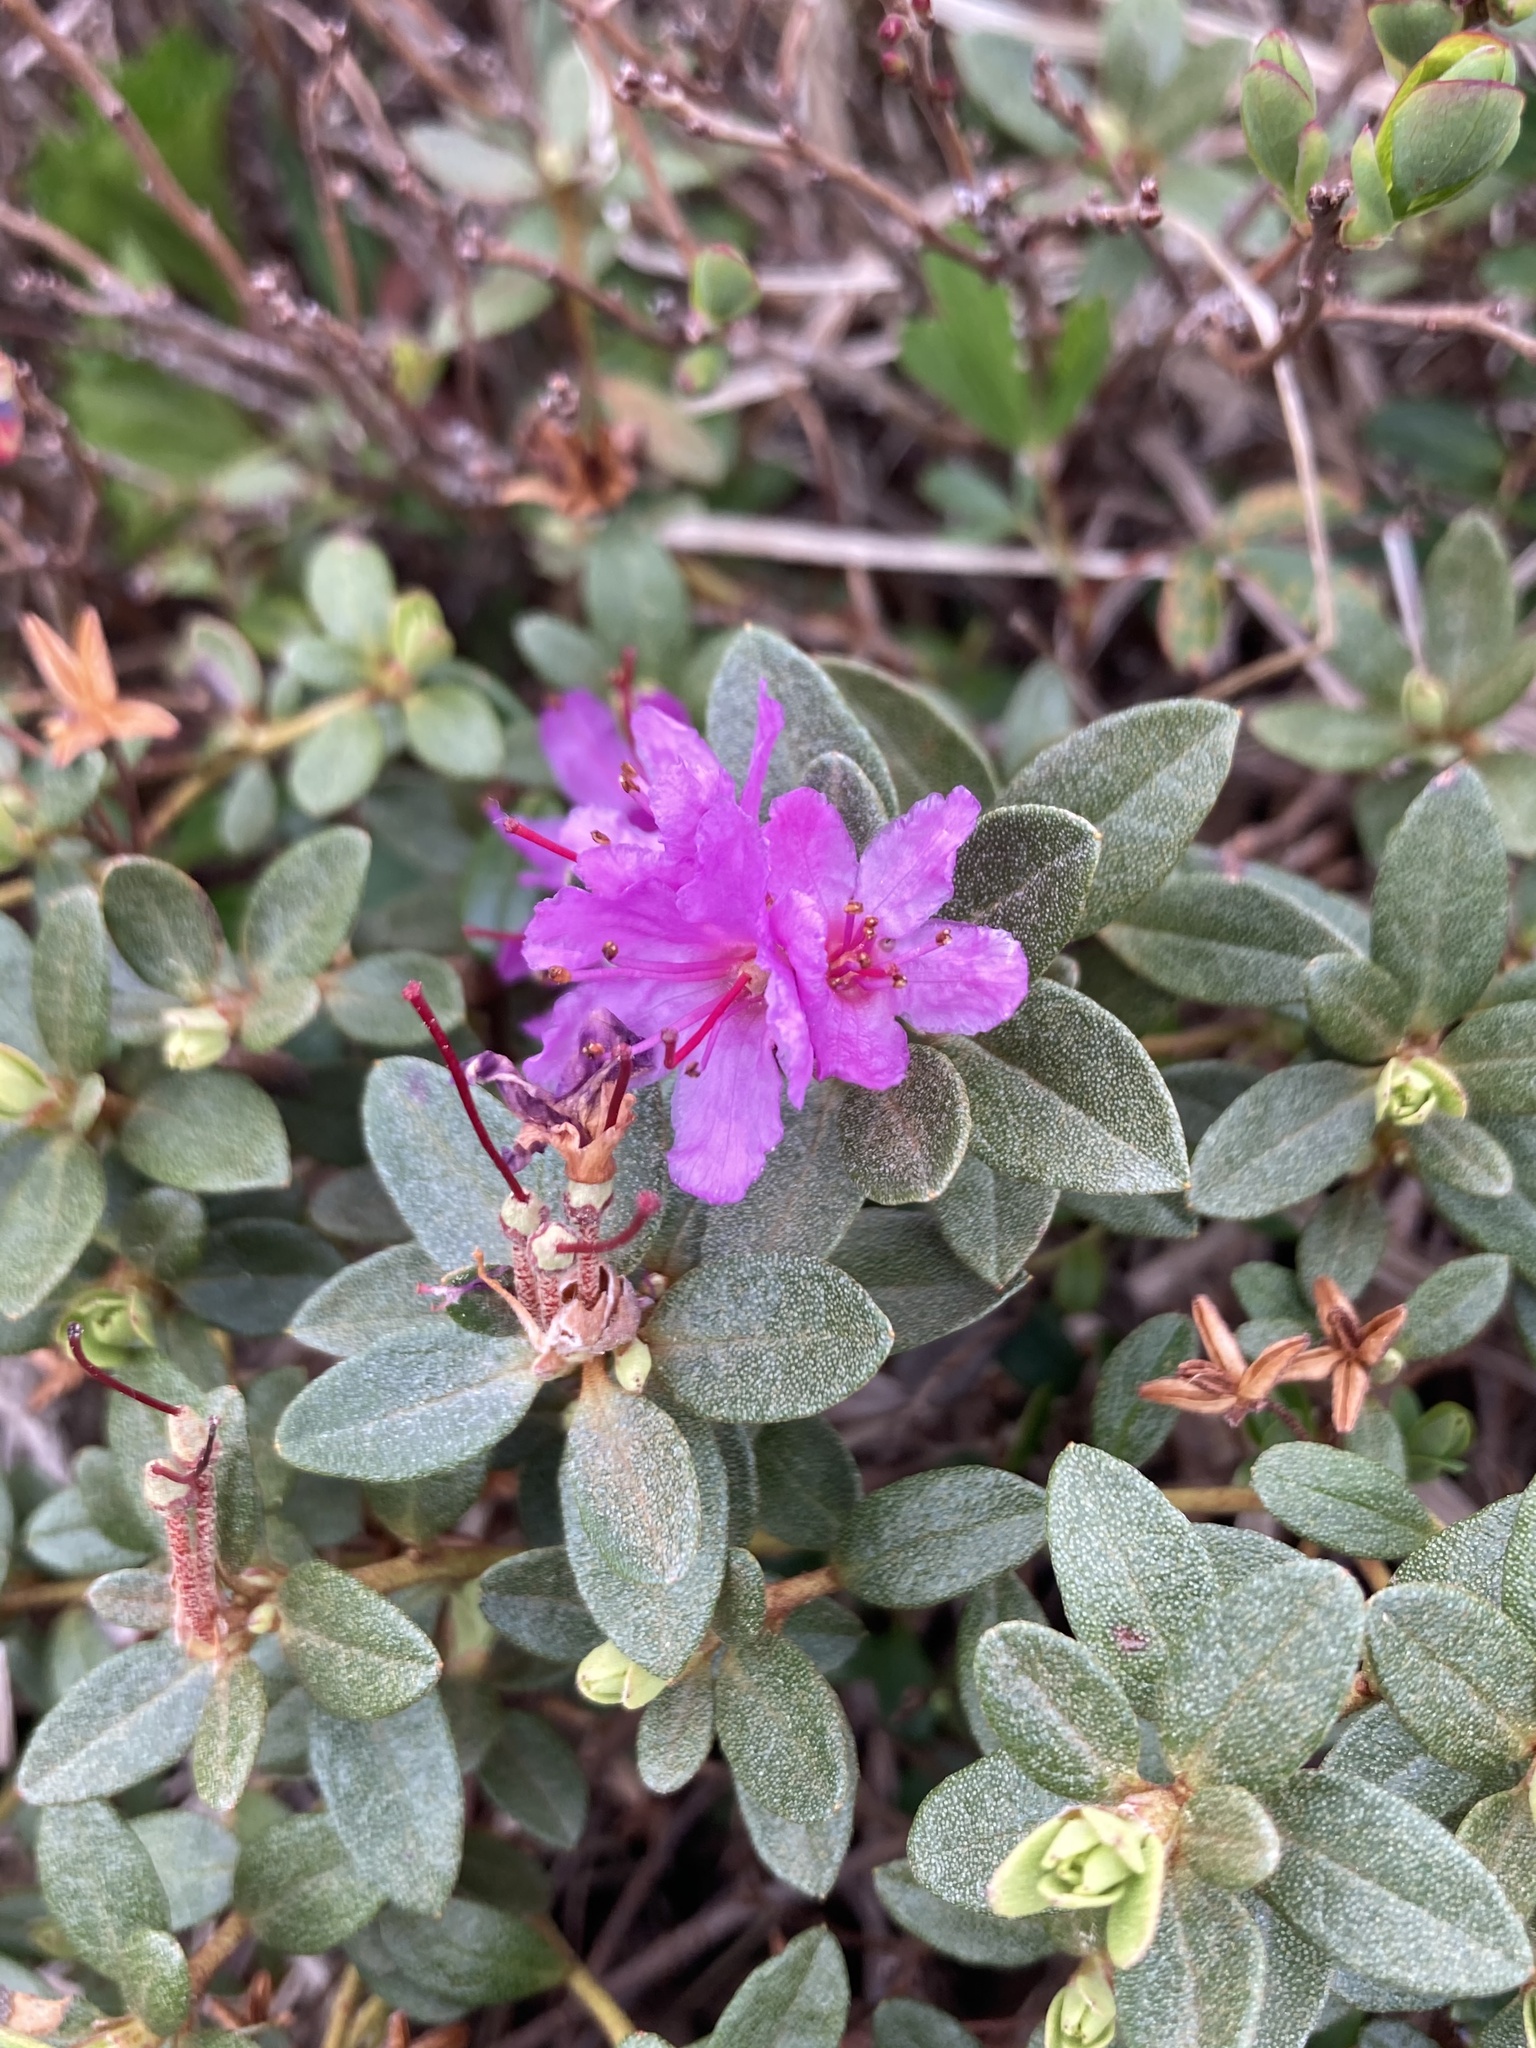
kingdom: Plantae
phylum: Tracheophyta
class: Magnoliopsida
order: Ericales
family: Ericaceae
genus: Rhododendron
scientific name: Rhododendron lapponicum
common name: Lapland rhododendron
